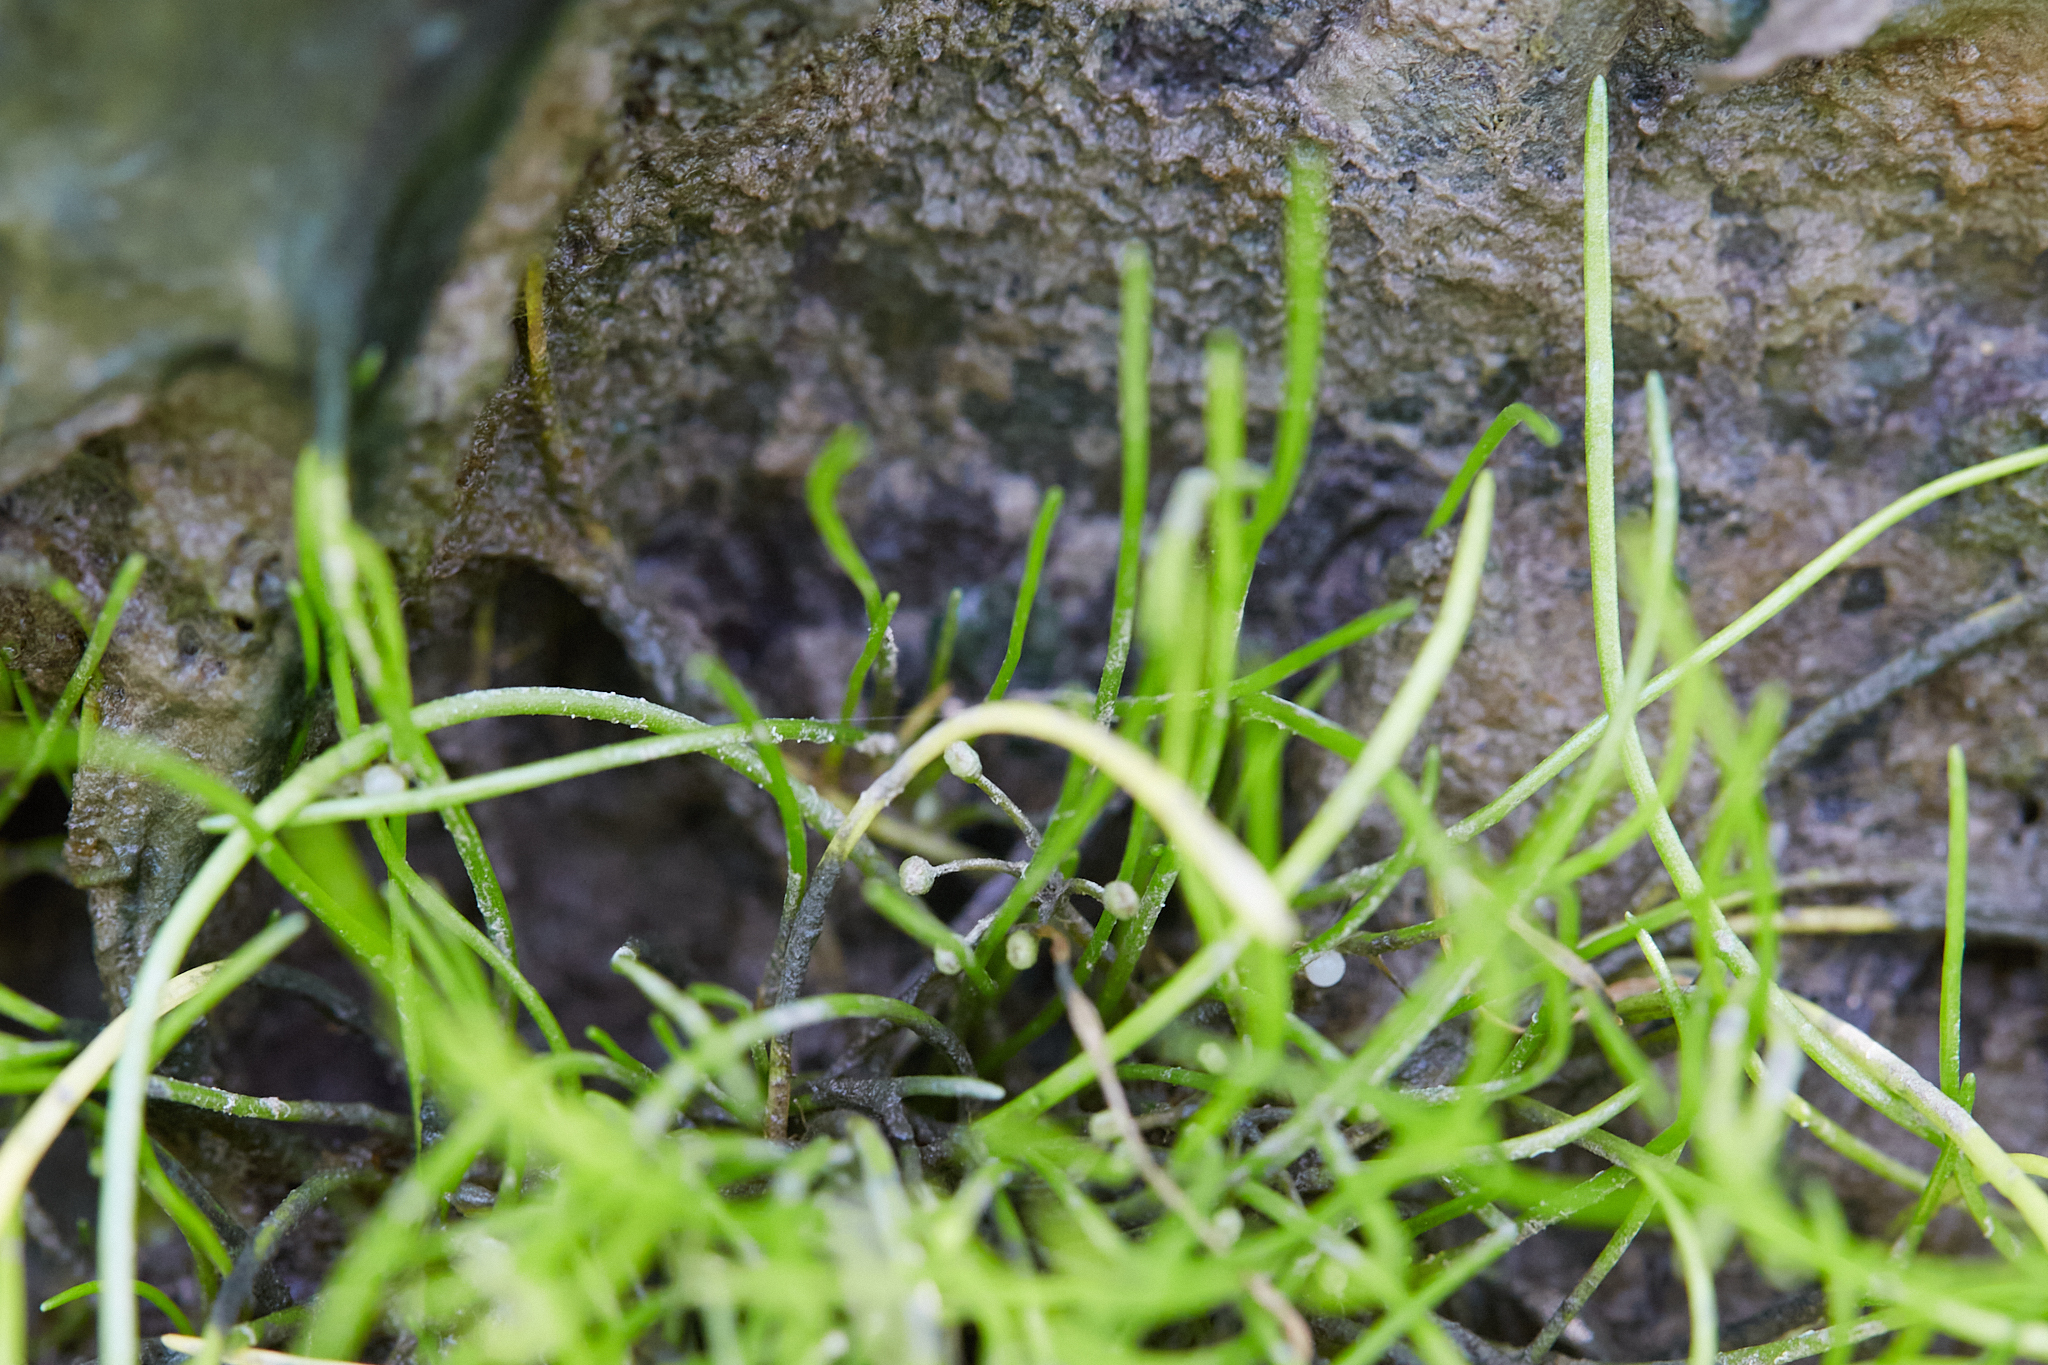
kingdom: Plantae
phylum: Tracheophyta
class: Magnoliopsida
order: Apiales
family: Apiaceae
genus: Lilaeopsis
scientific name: Lilaeopsis occidentalis
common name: Western grasswort
